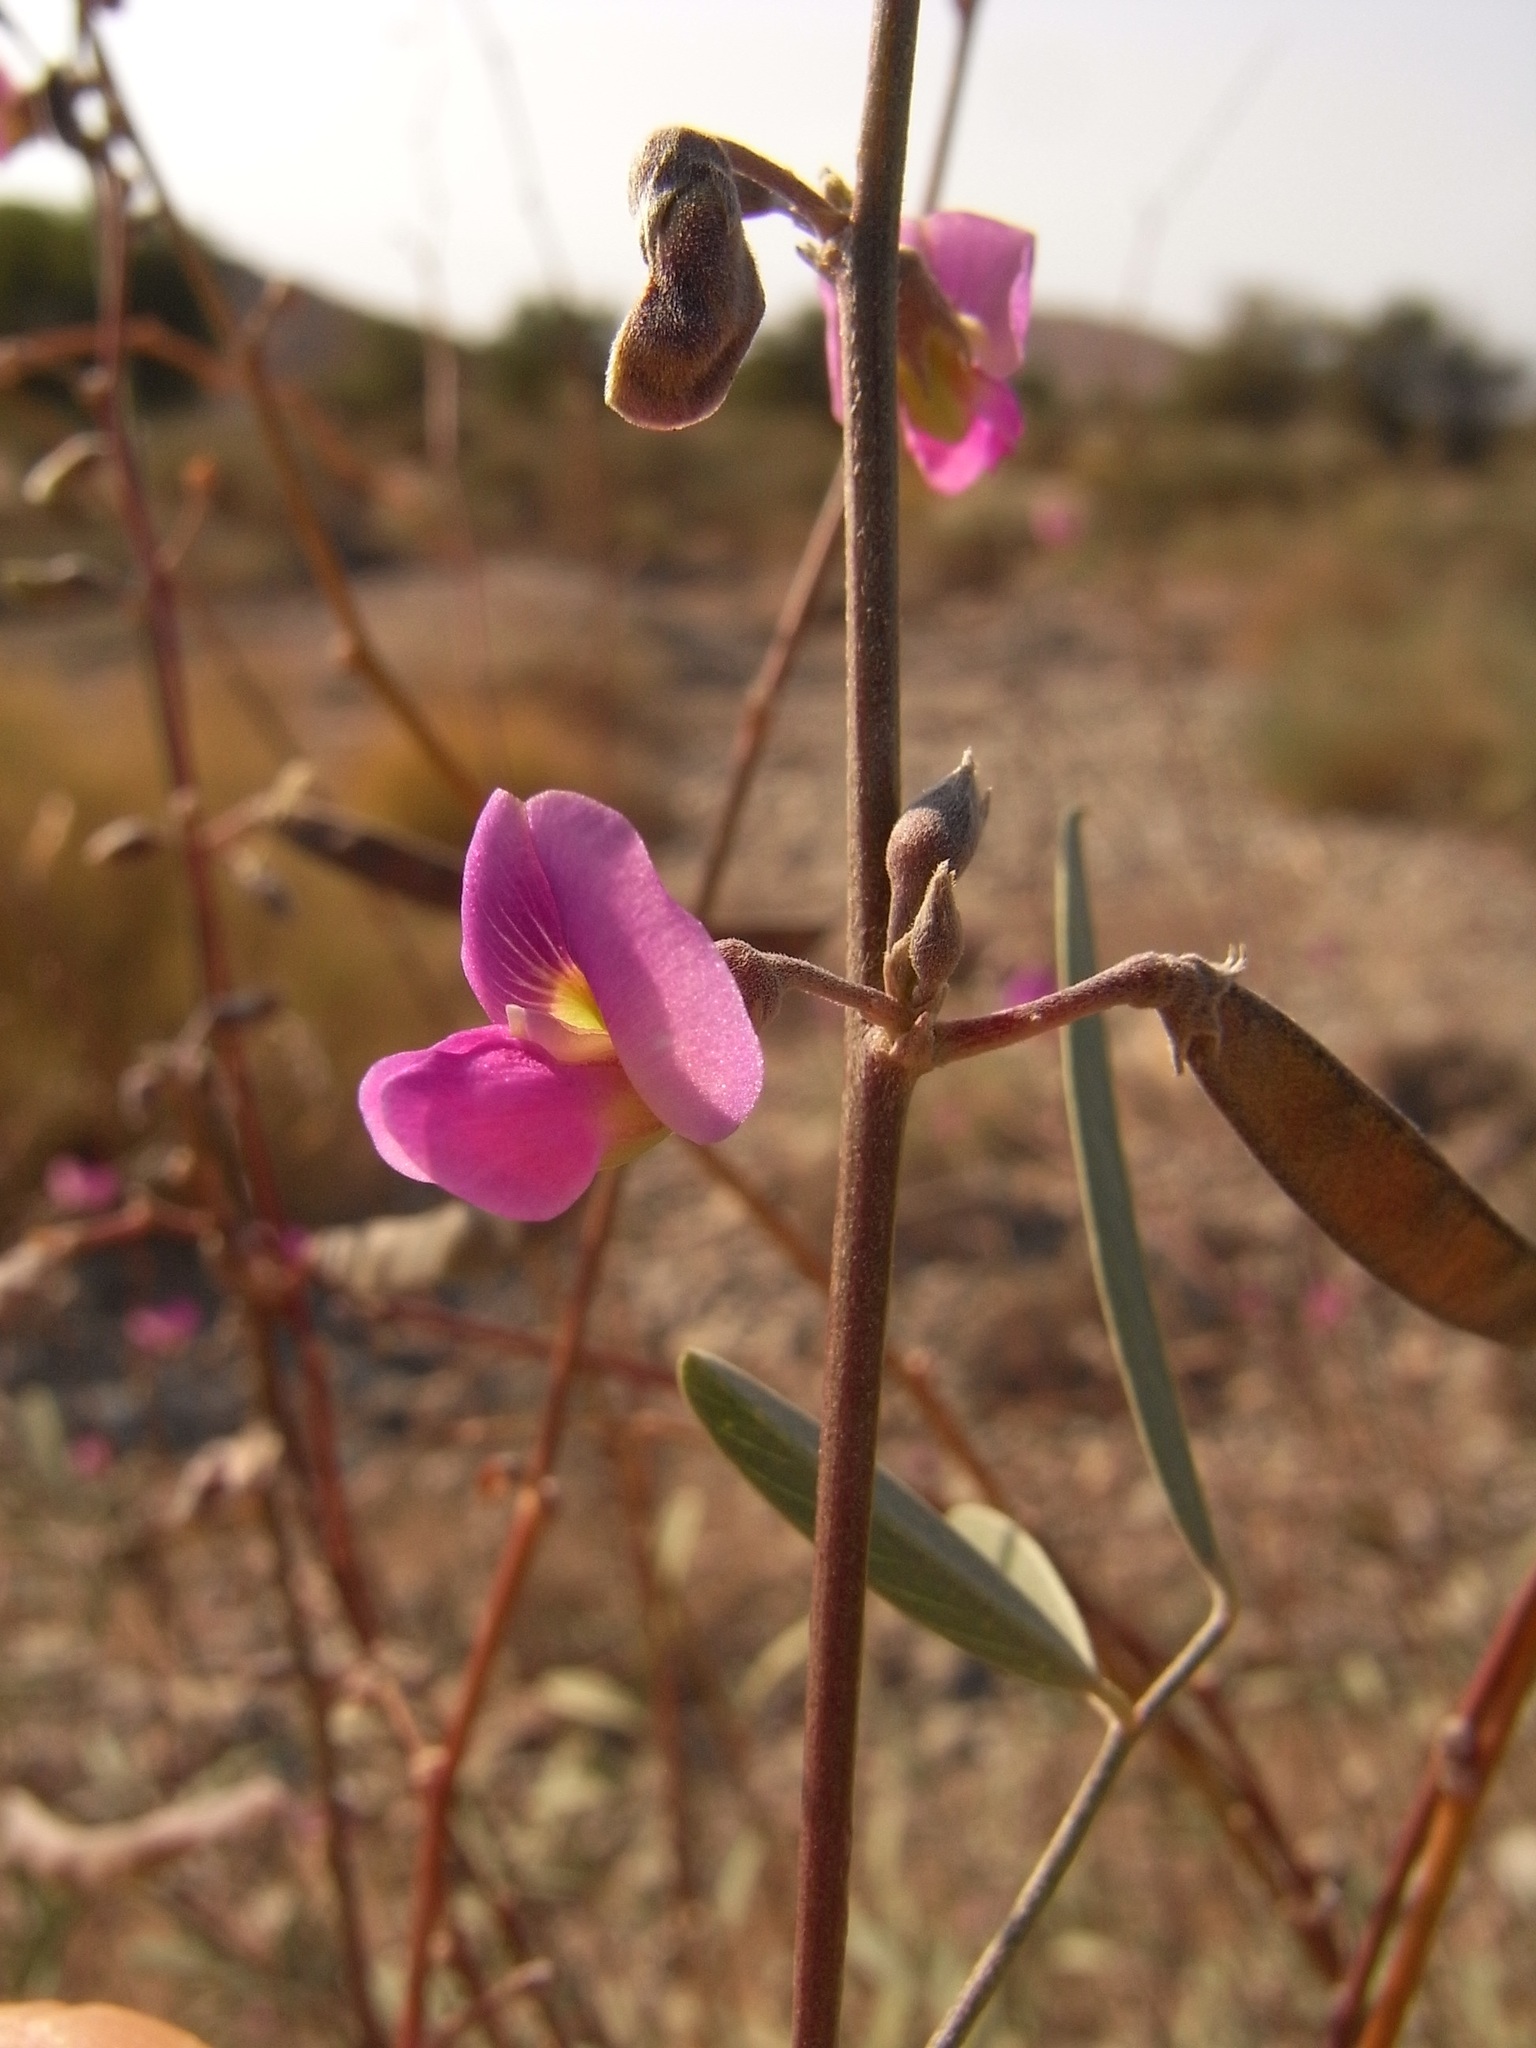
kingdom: Plantae
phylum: Tracheophyta
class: Magnoliopsida
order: Fabales
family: Fabaceae
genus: Tephrosia
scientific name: Tephrosia
